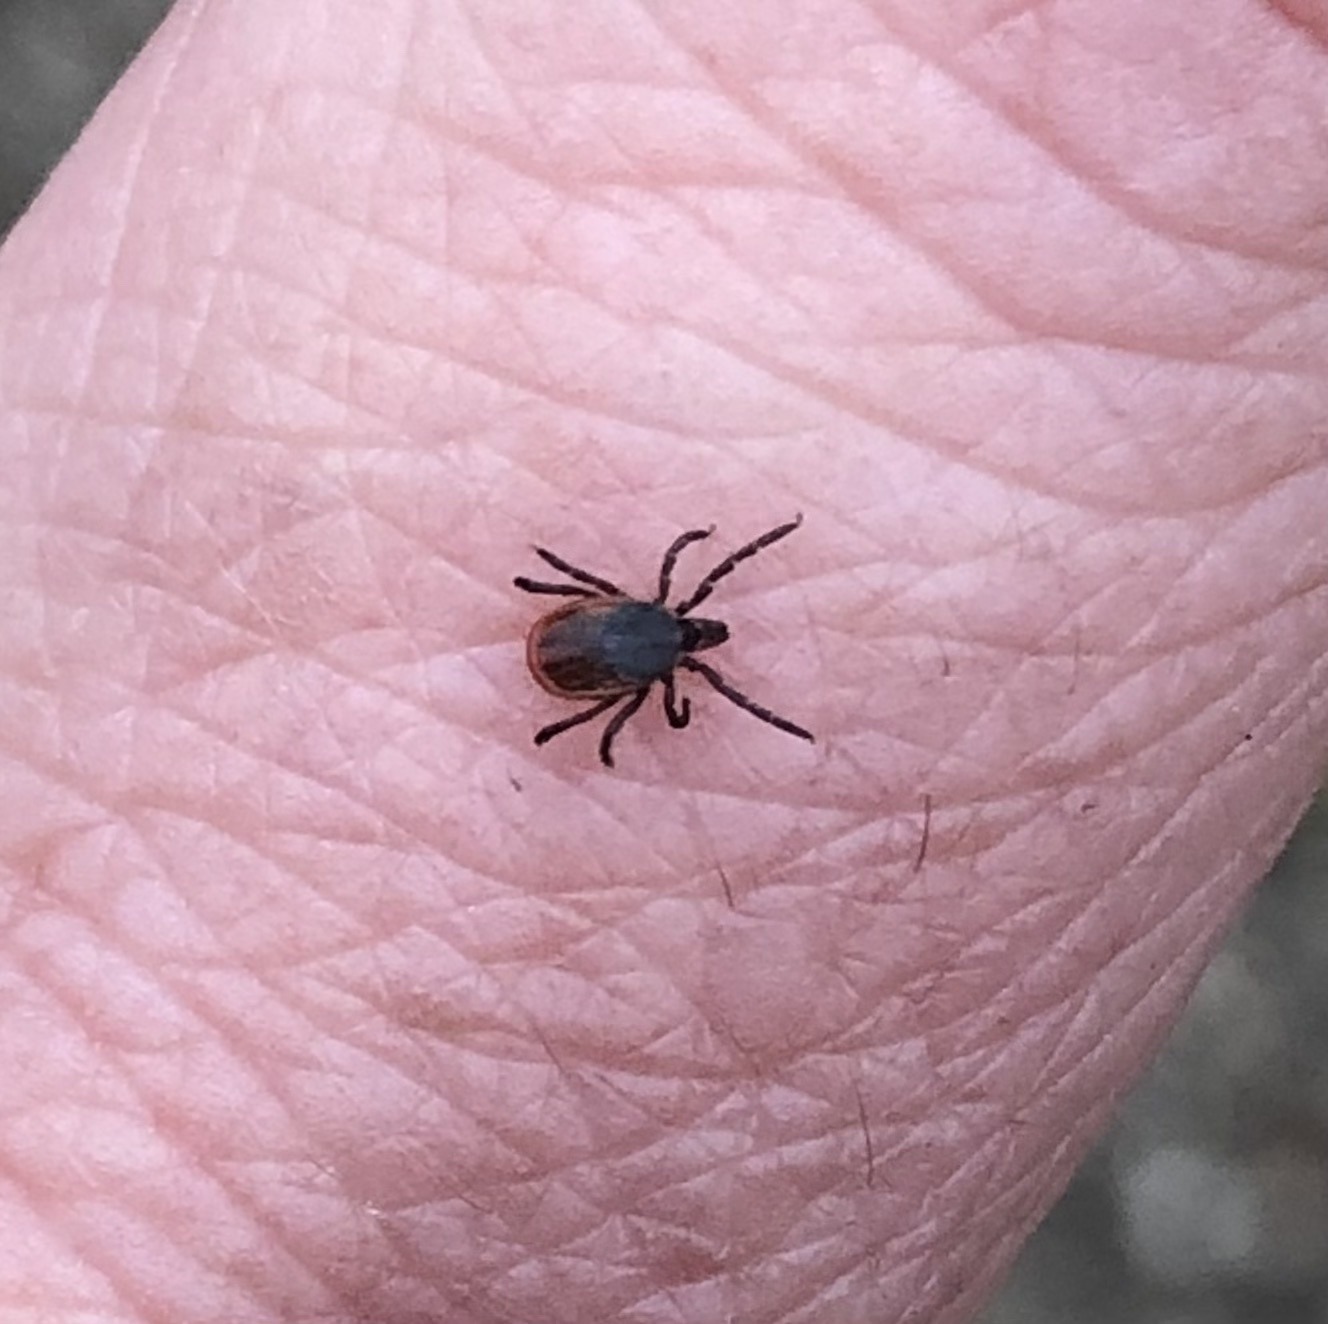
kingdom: Animalia
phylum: Arthropoda
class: Arachnida
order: Ixodida
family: Ixodidae
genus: Ixodes
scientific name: Ixodes scapularis
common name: Black legged tick
